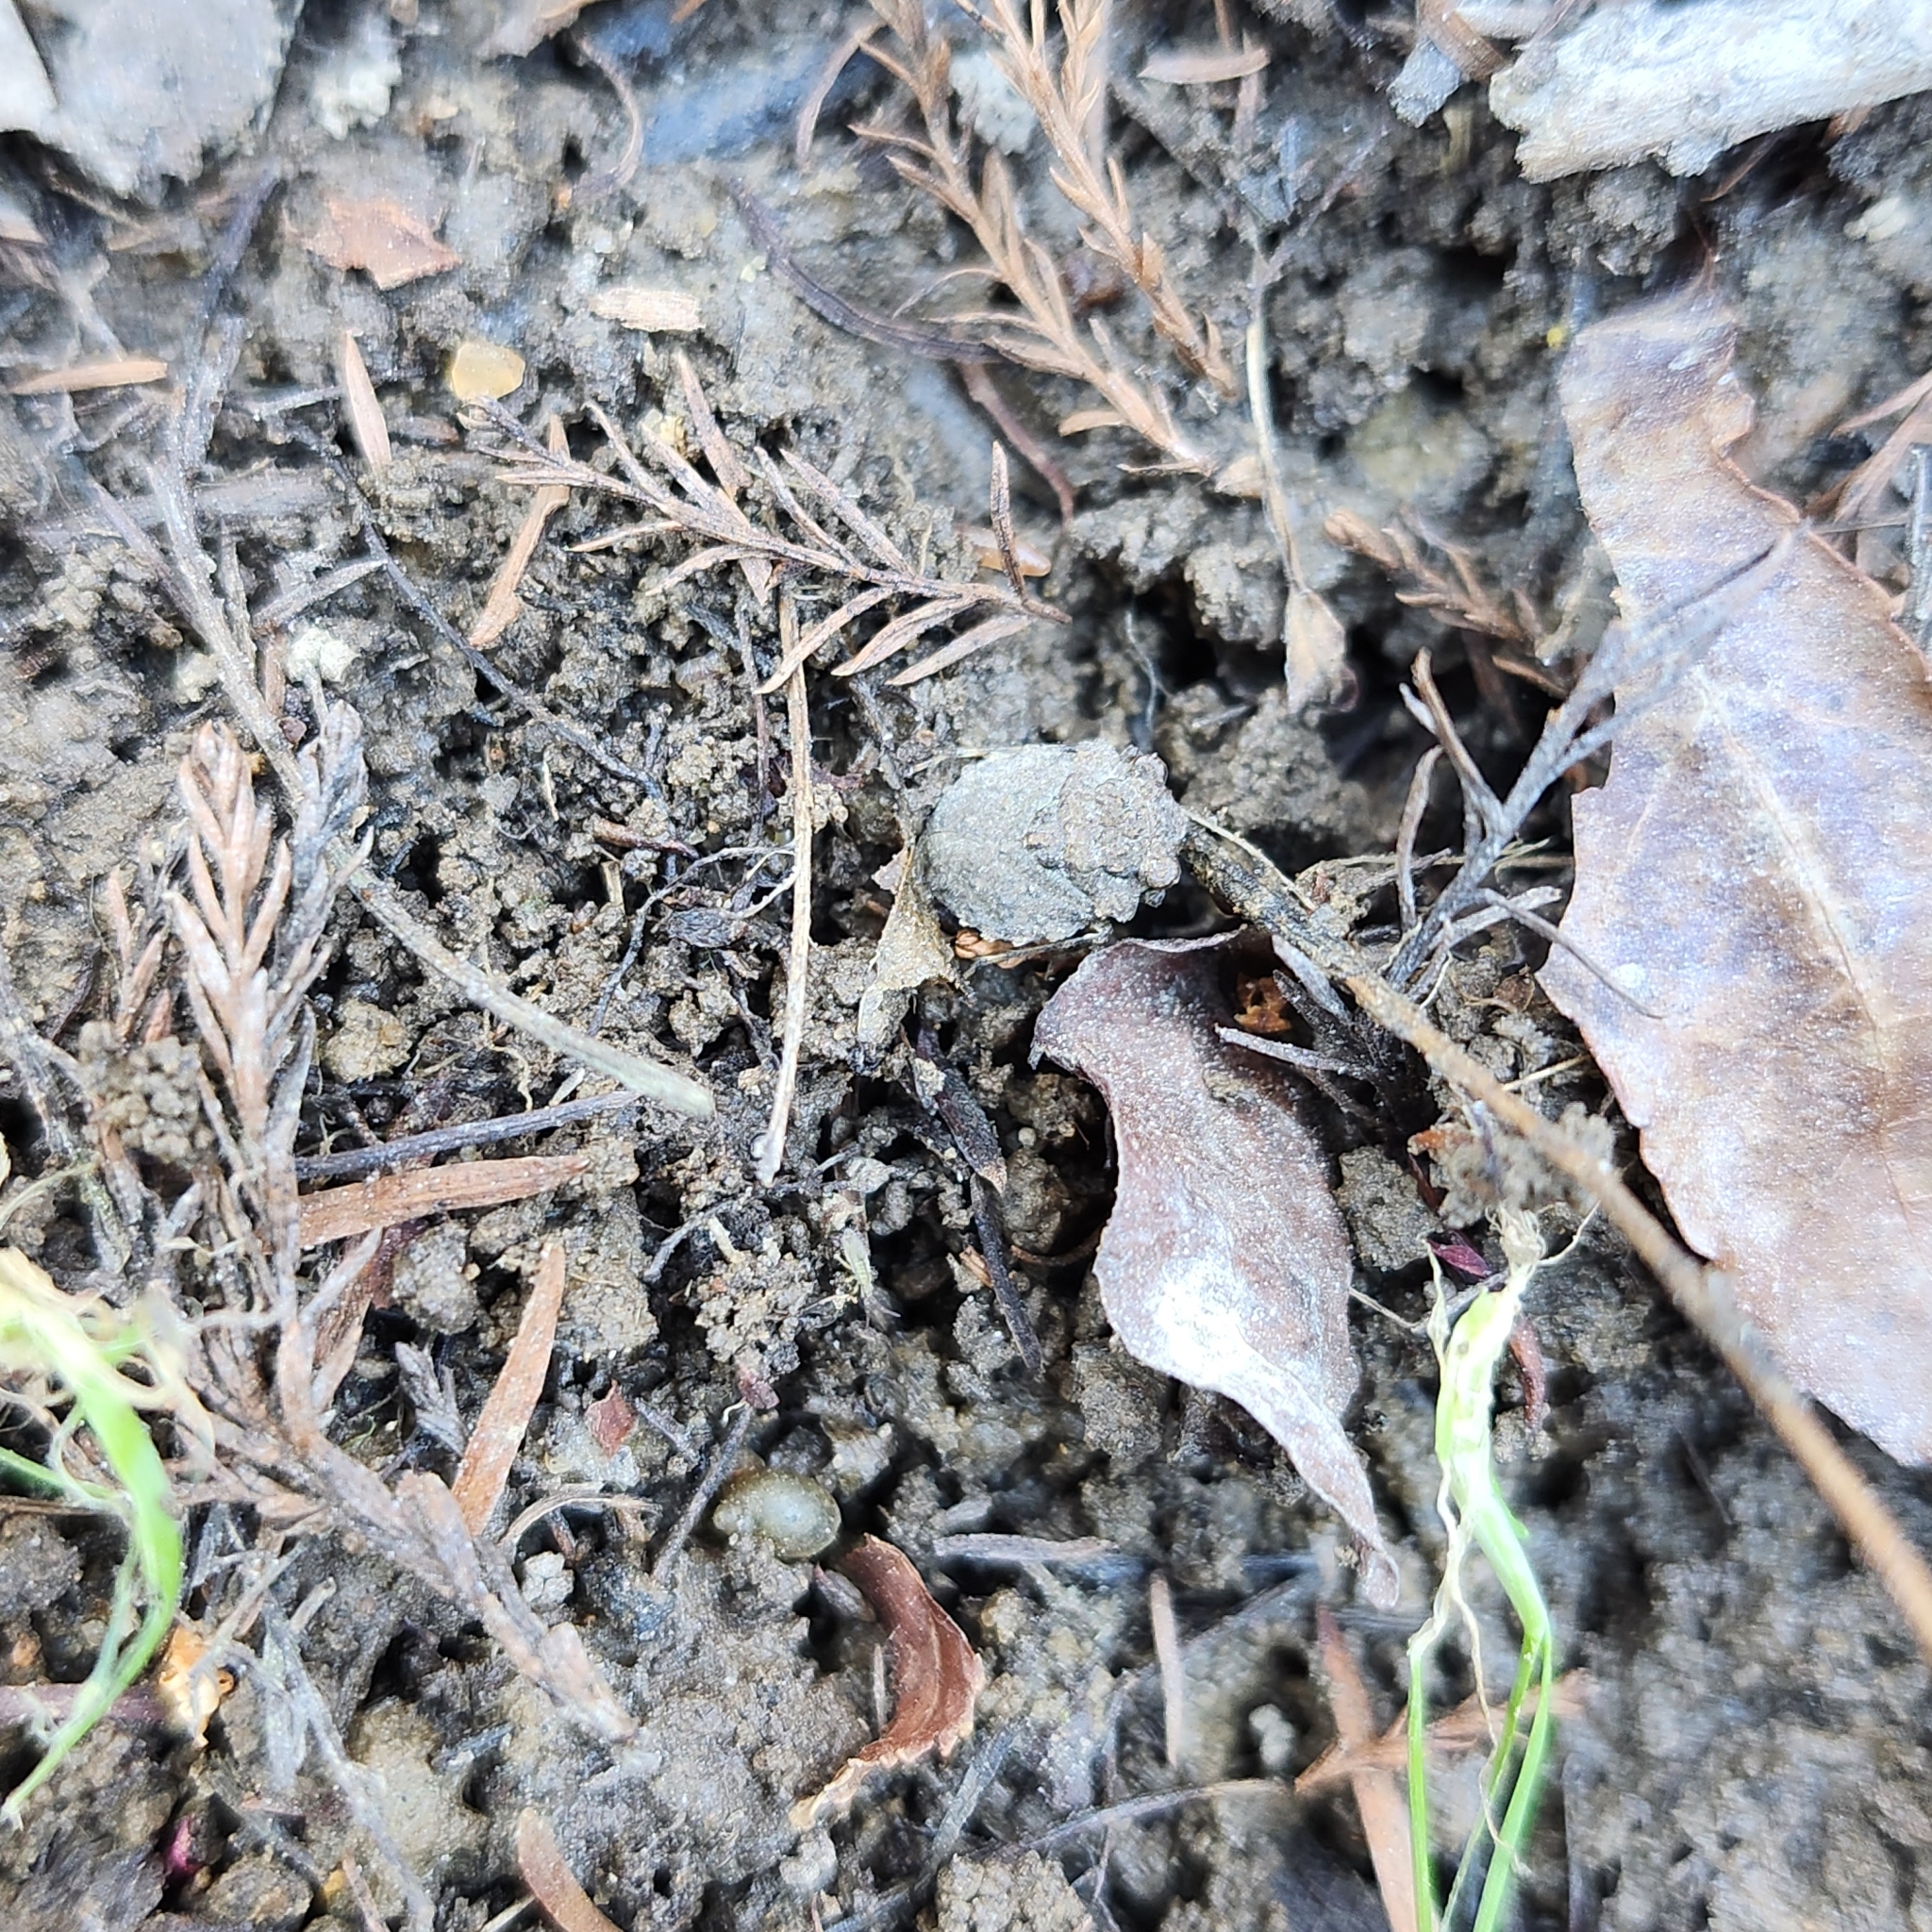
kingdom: Animalia
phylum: Arthropoda
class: Insecta
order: Hemiptera
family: Gelastocoridae
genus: Gelastocoris
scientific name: Gelastocoris oculatus
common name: Toad bug
